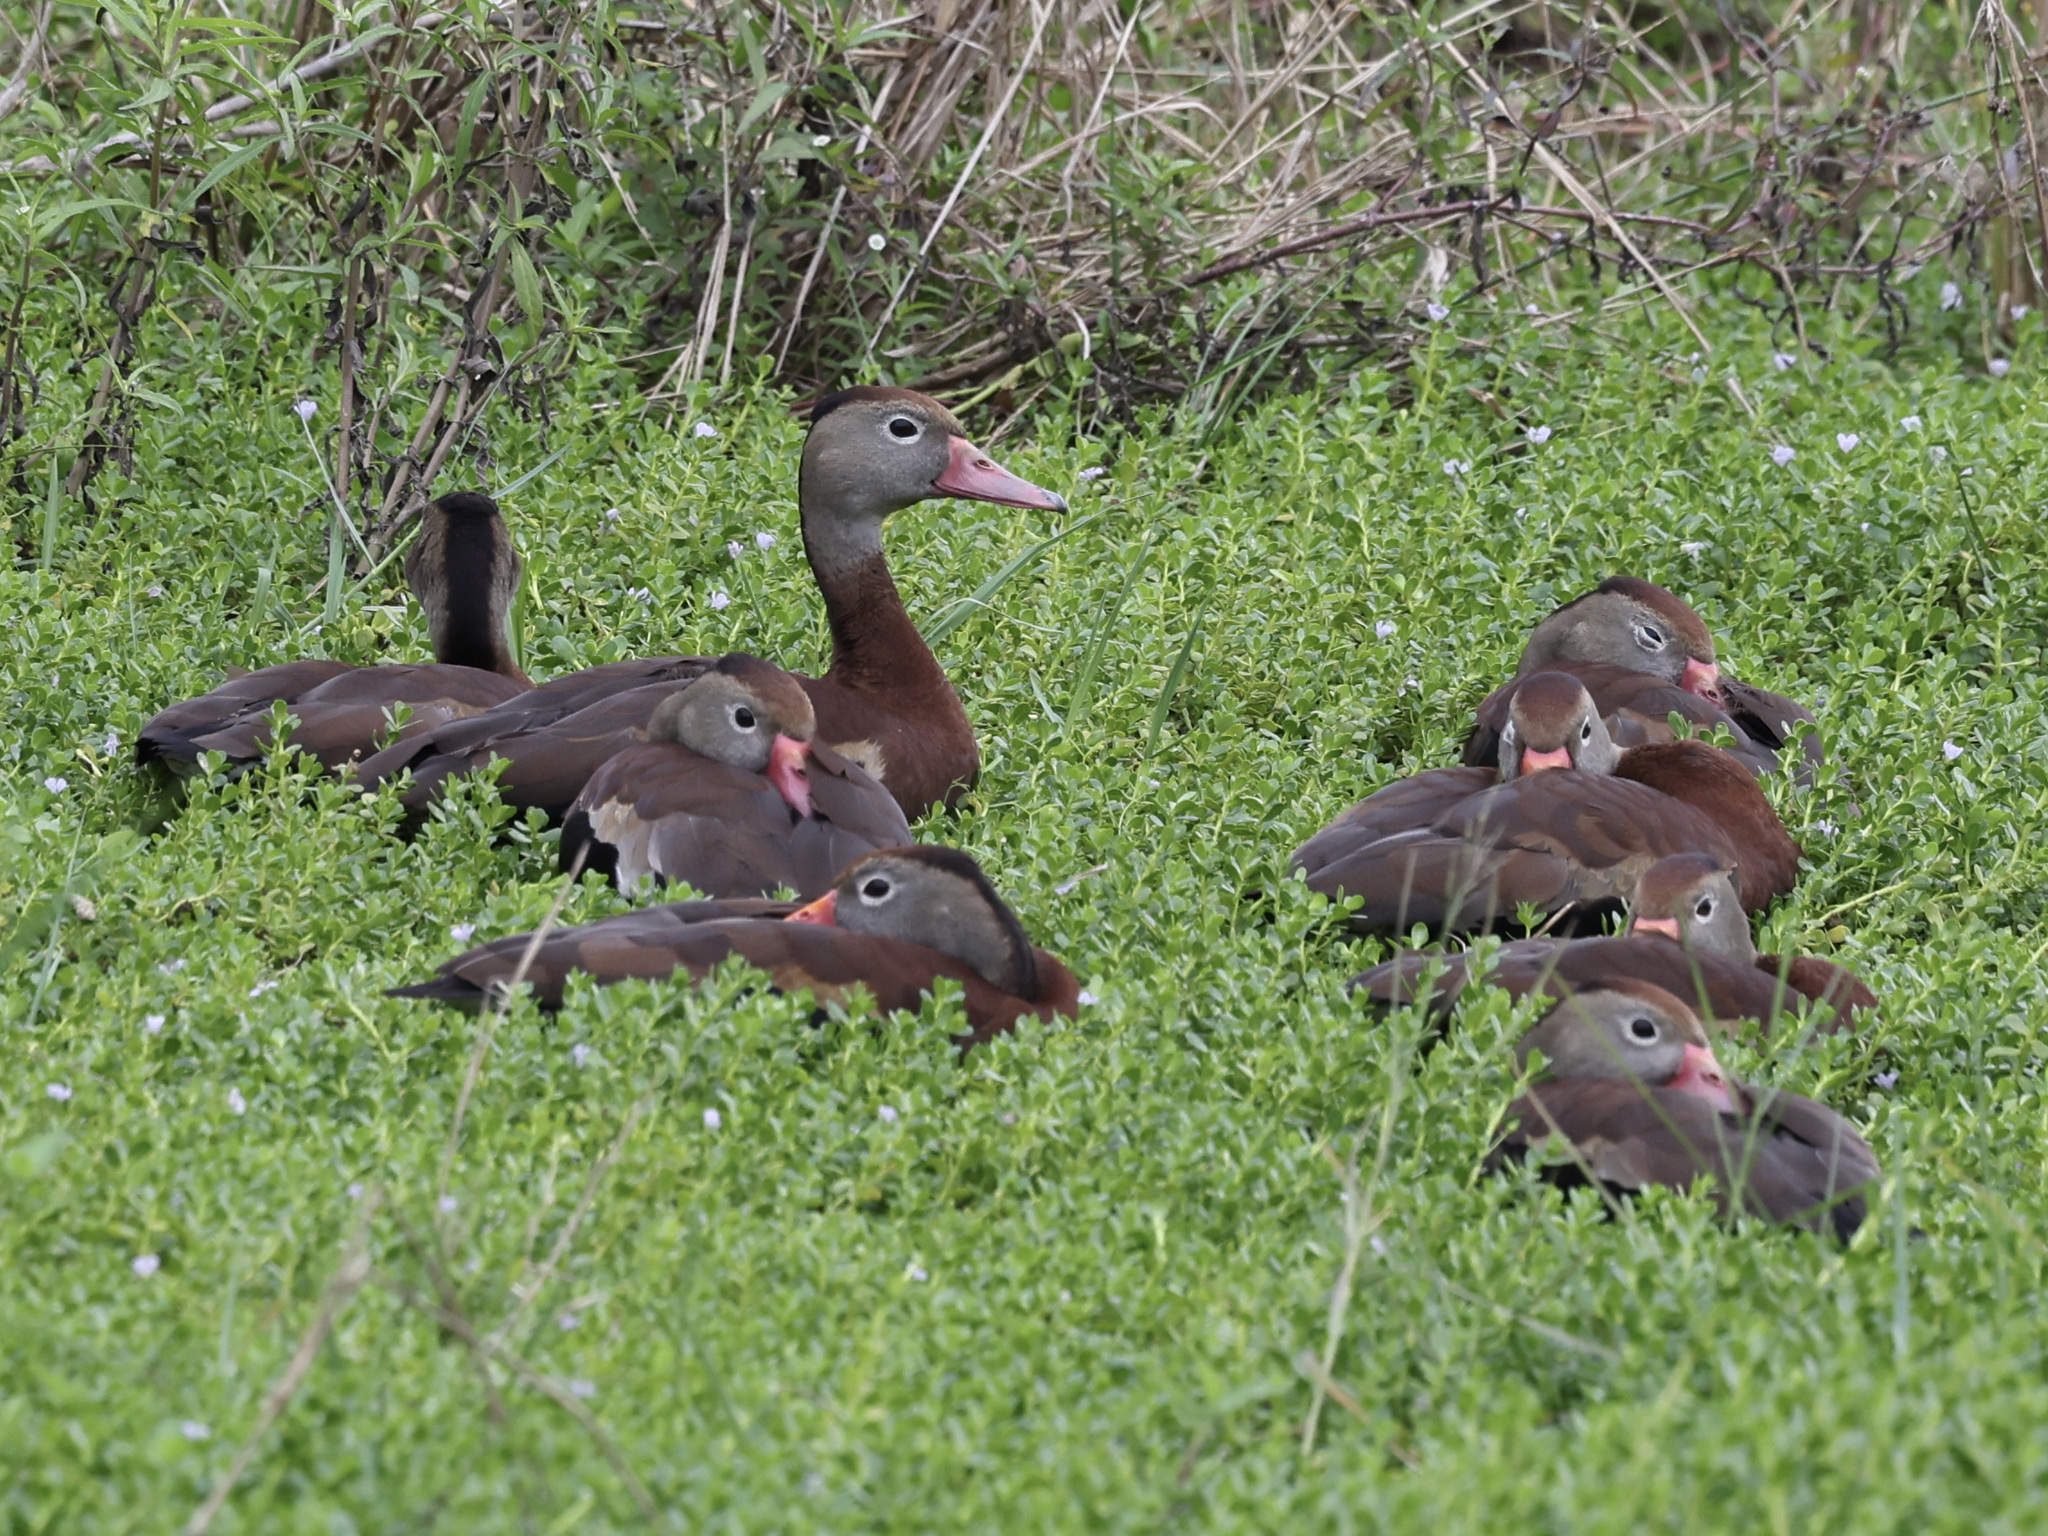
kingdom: Animalia
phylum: Chordata
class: Aves
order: Anseriformes
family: Anatidae
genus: Dendrocygna
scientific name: Dendrocygna autumnalis
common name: Black-bellied whistling duck
